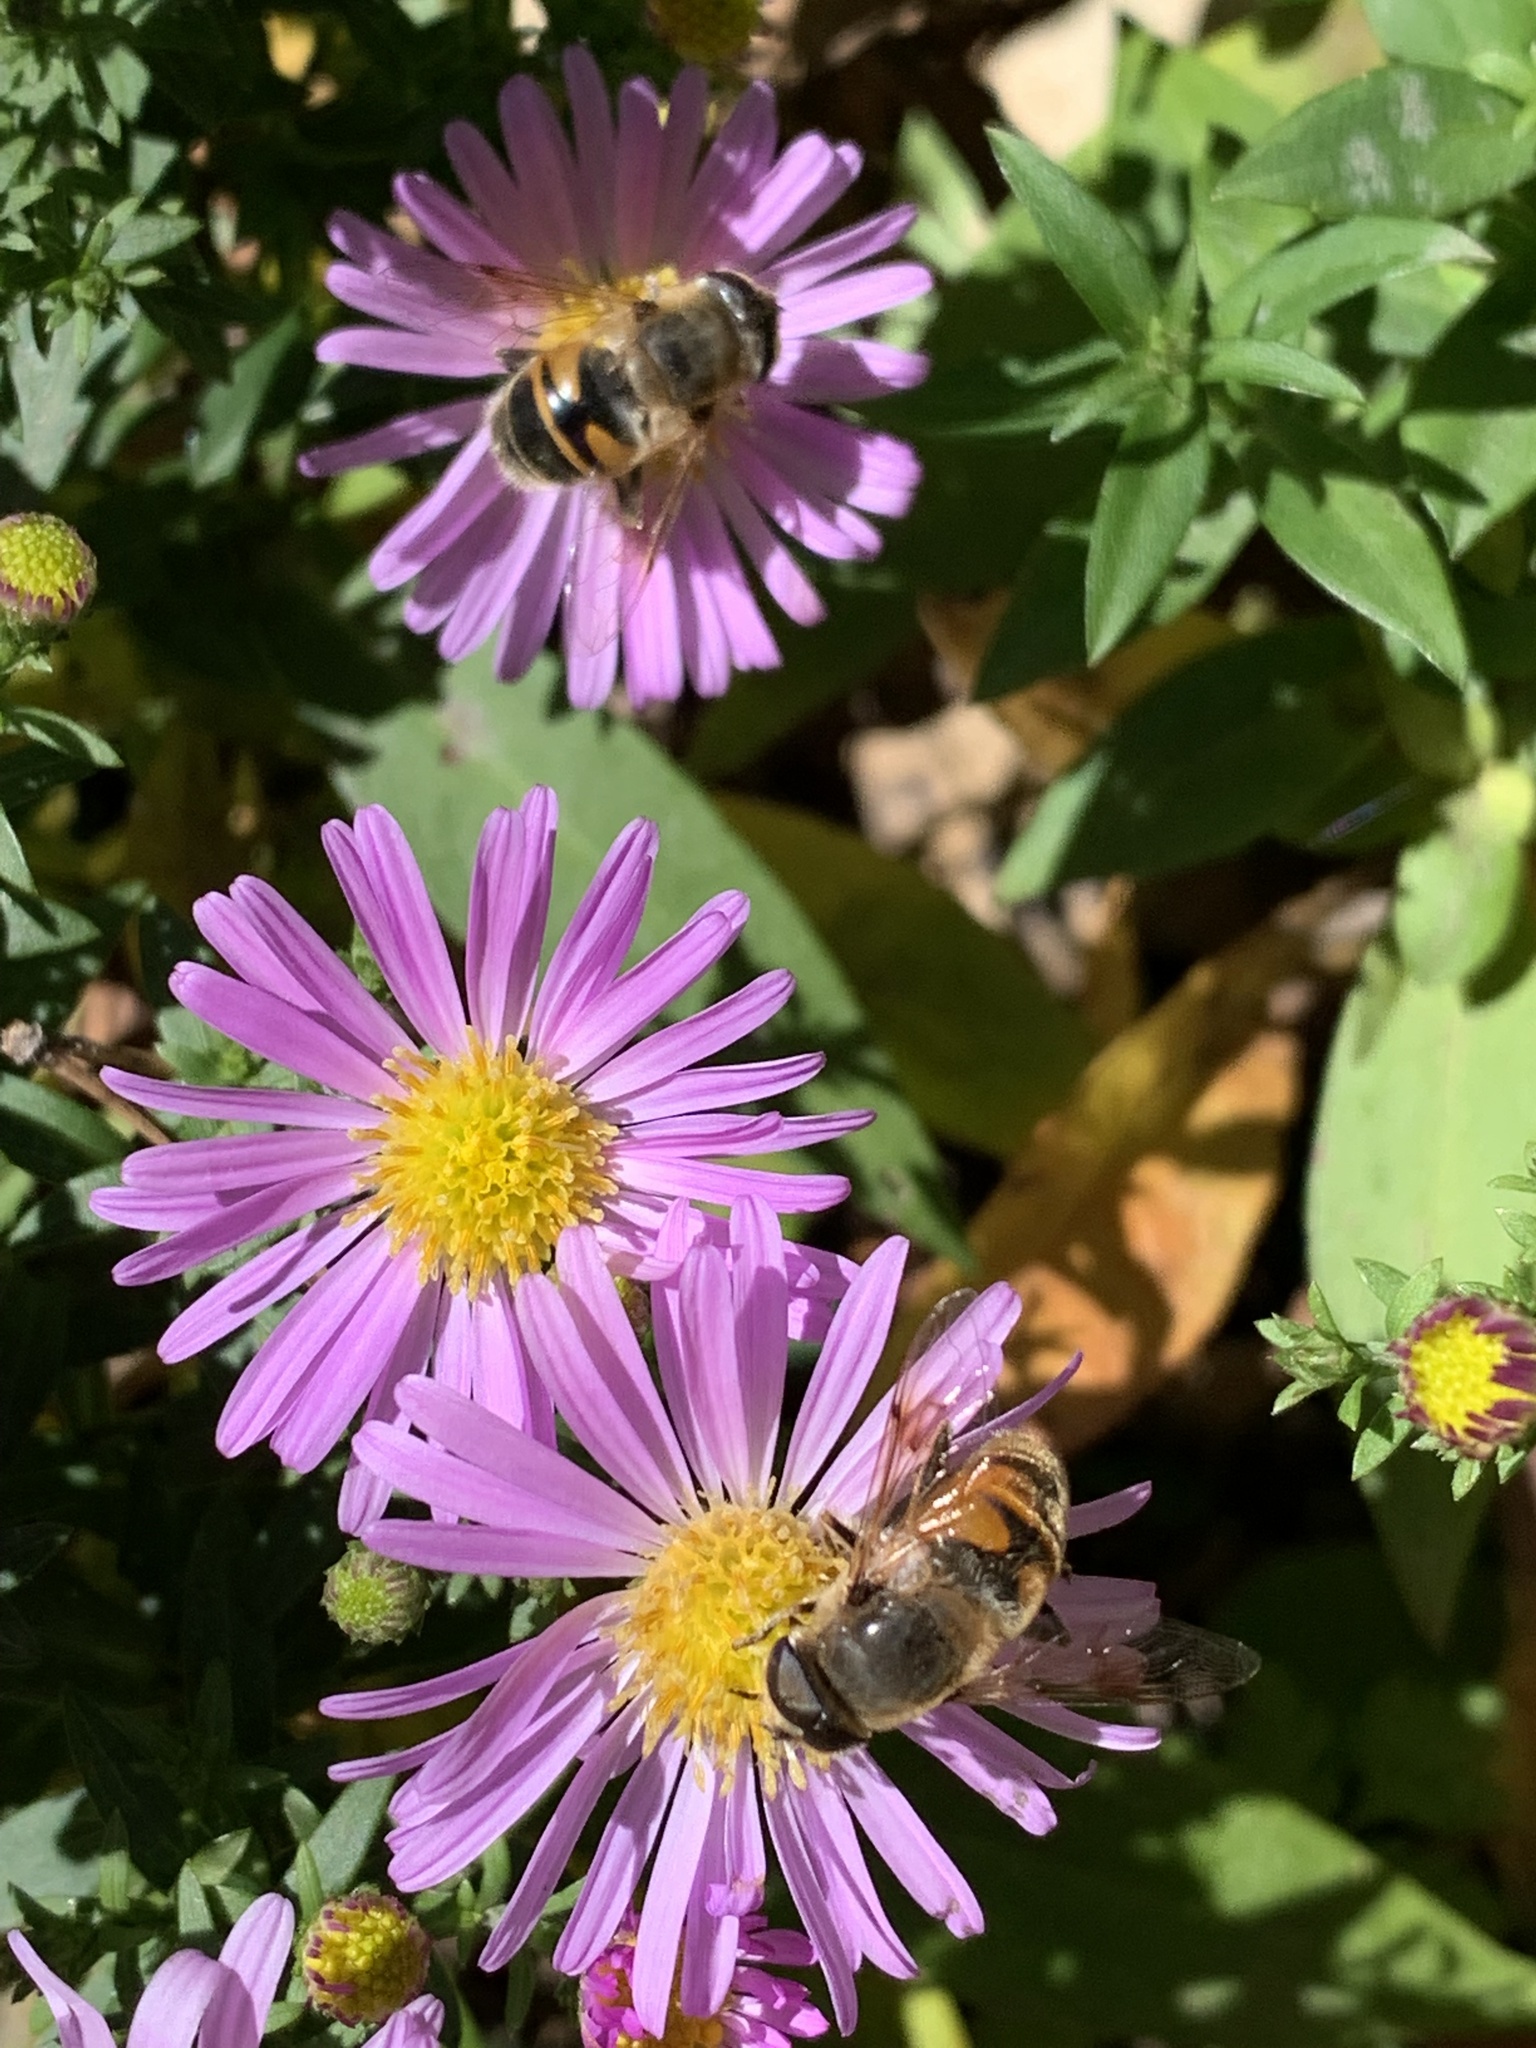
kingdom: Animalia
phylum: Arthropoda
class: Insecta
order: Diptera
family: Syrphidae
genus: Eristalis
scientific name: Eristalis tenax
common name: Drone fly
